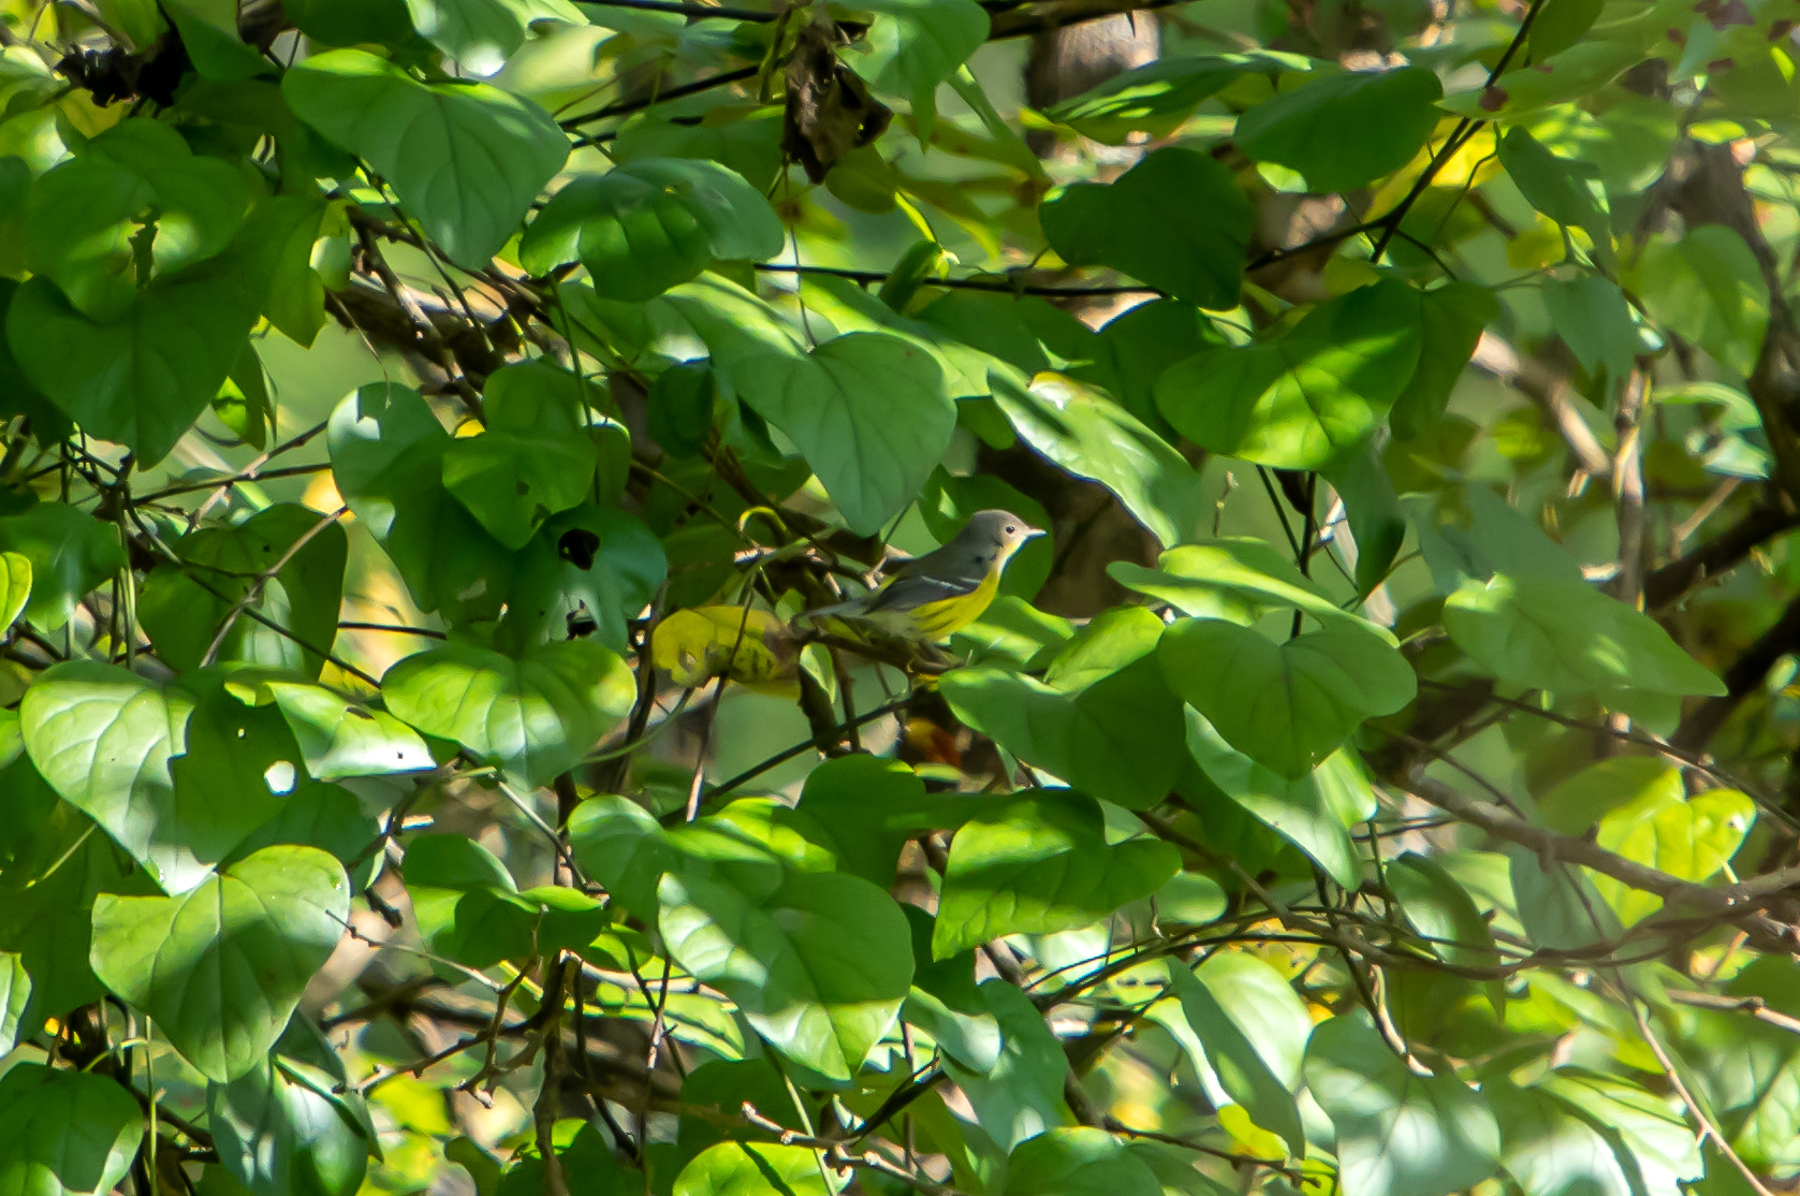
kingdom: Animalia
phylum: Chordata
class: Aves
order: Passeriformes
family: Parulidae
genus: Setophaga
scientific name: Setophaga magnolia
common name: Magnolia warbler
